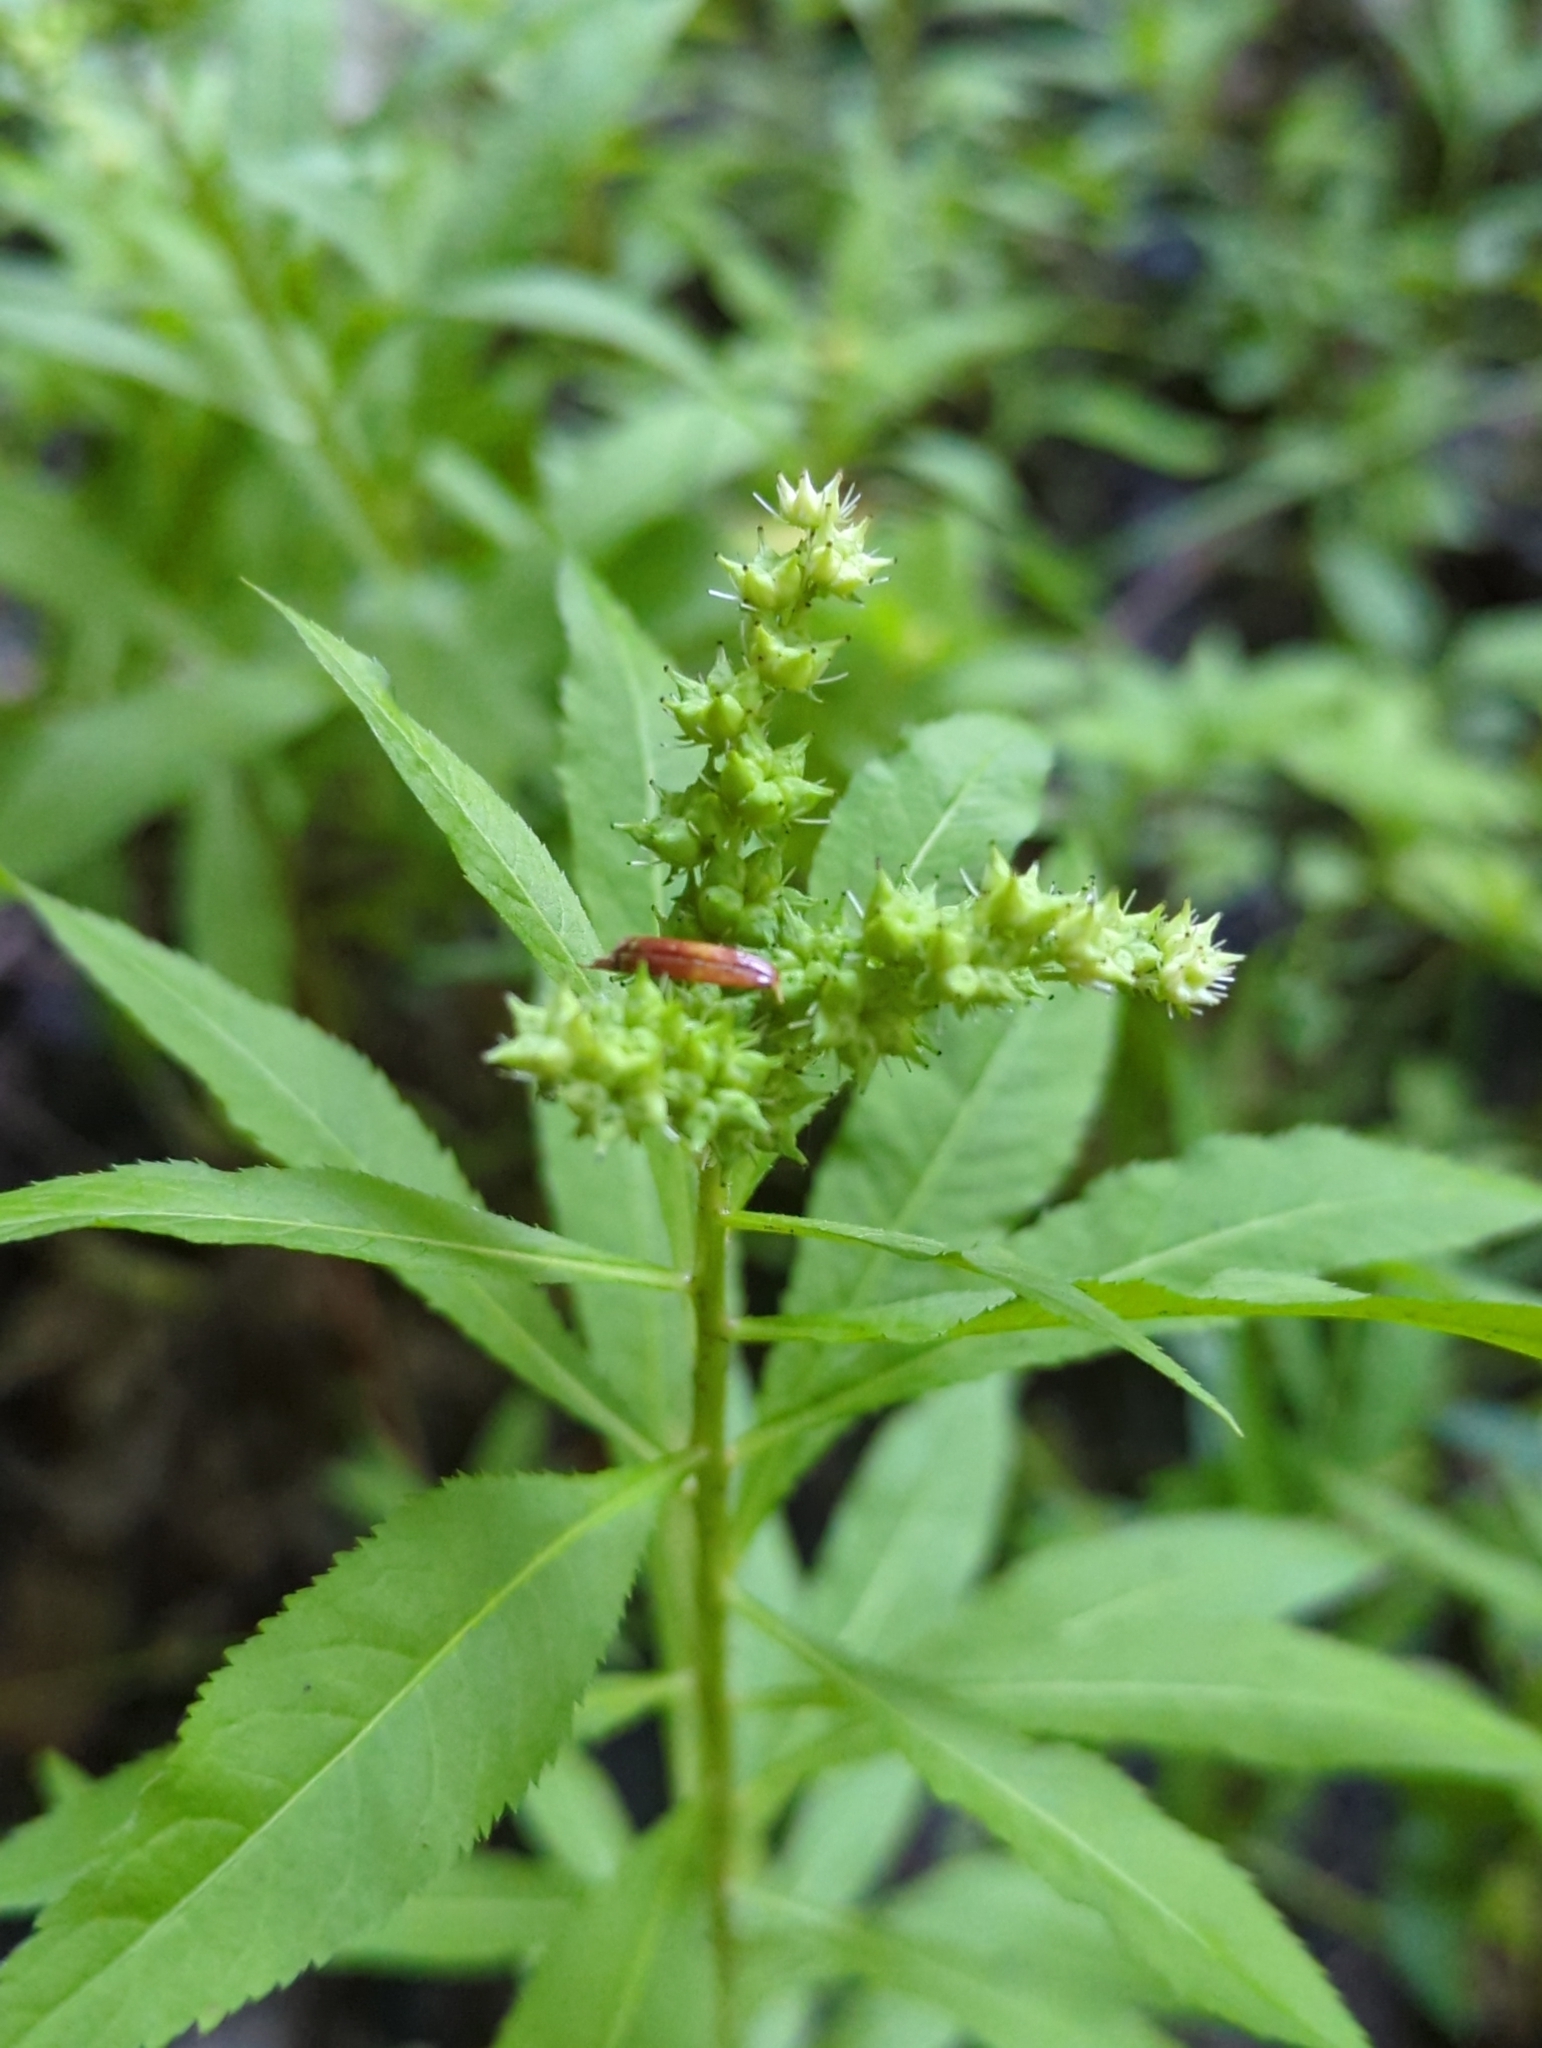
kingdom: Plantae
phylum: Tracheophyta
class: Magnoliopsida
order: Saxifragales
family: Penthoraceae
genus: Penthorum
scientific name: Penthorum sedoides
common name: Ditch stonecrop
